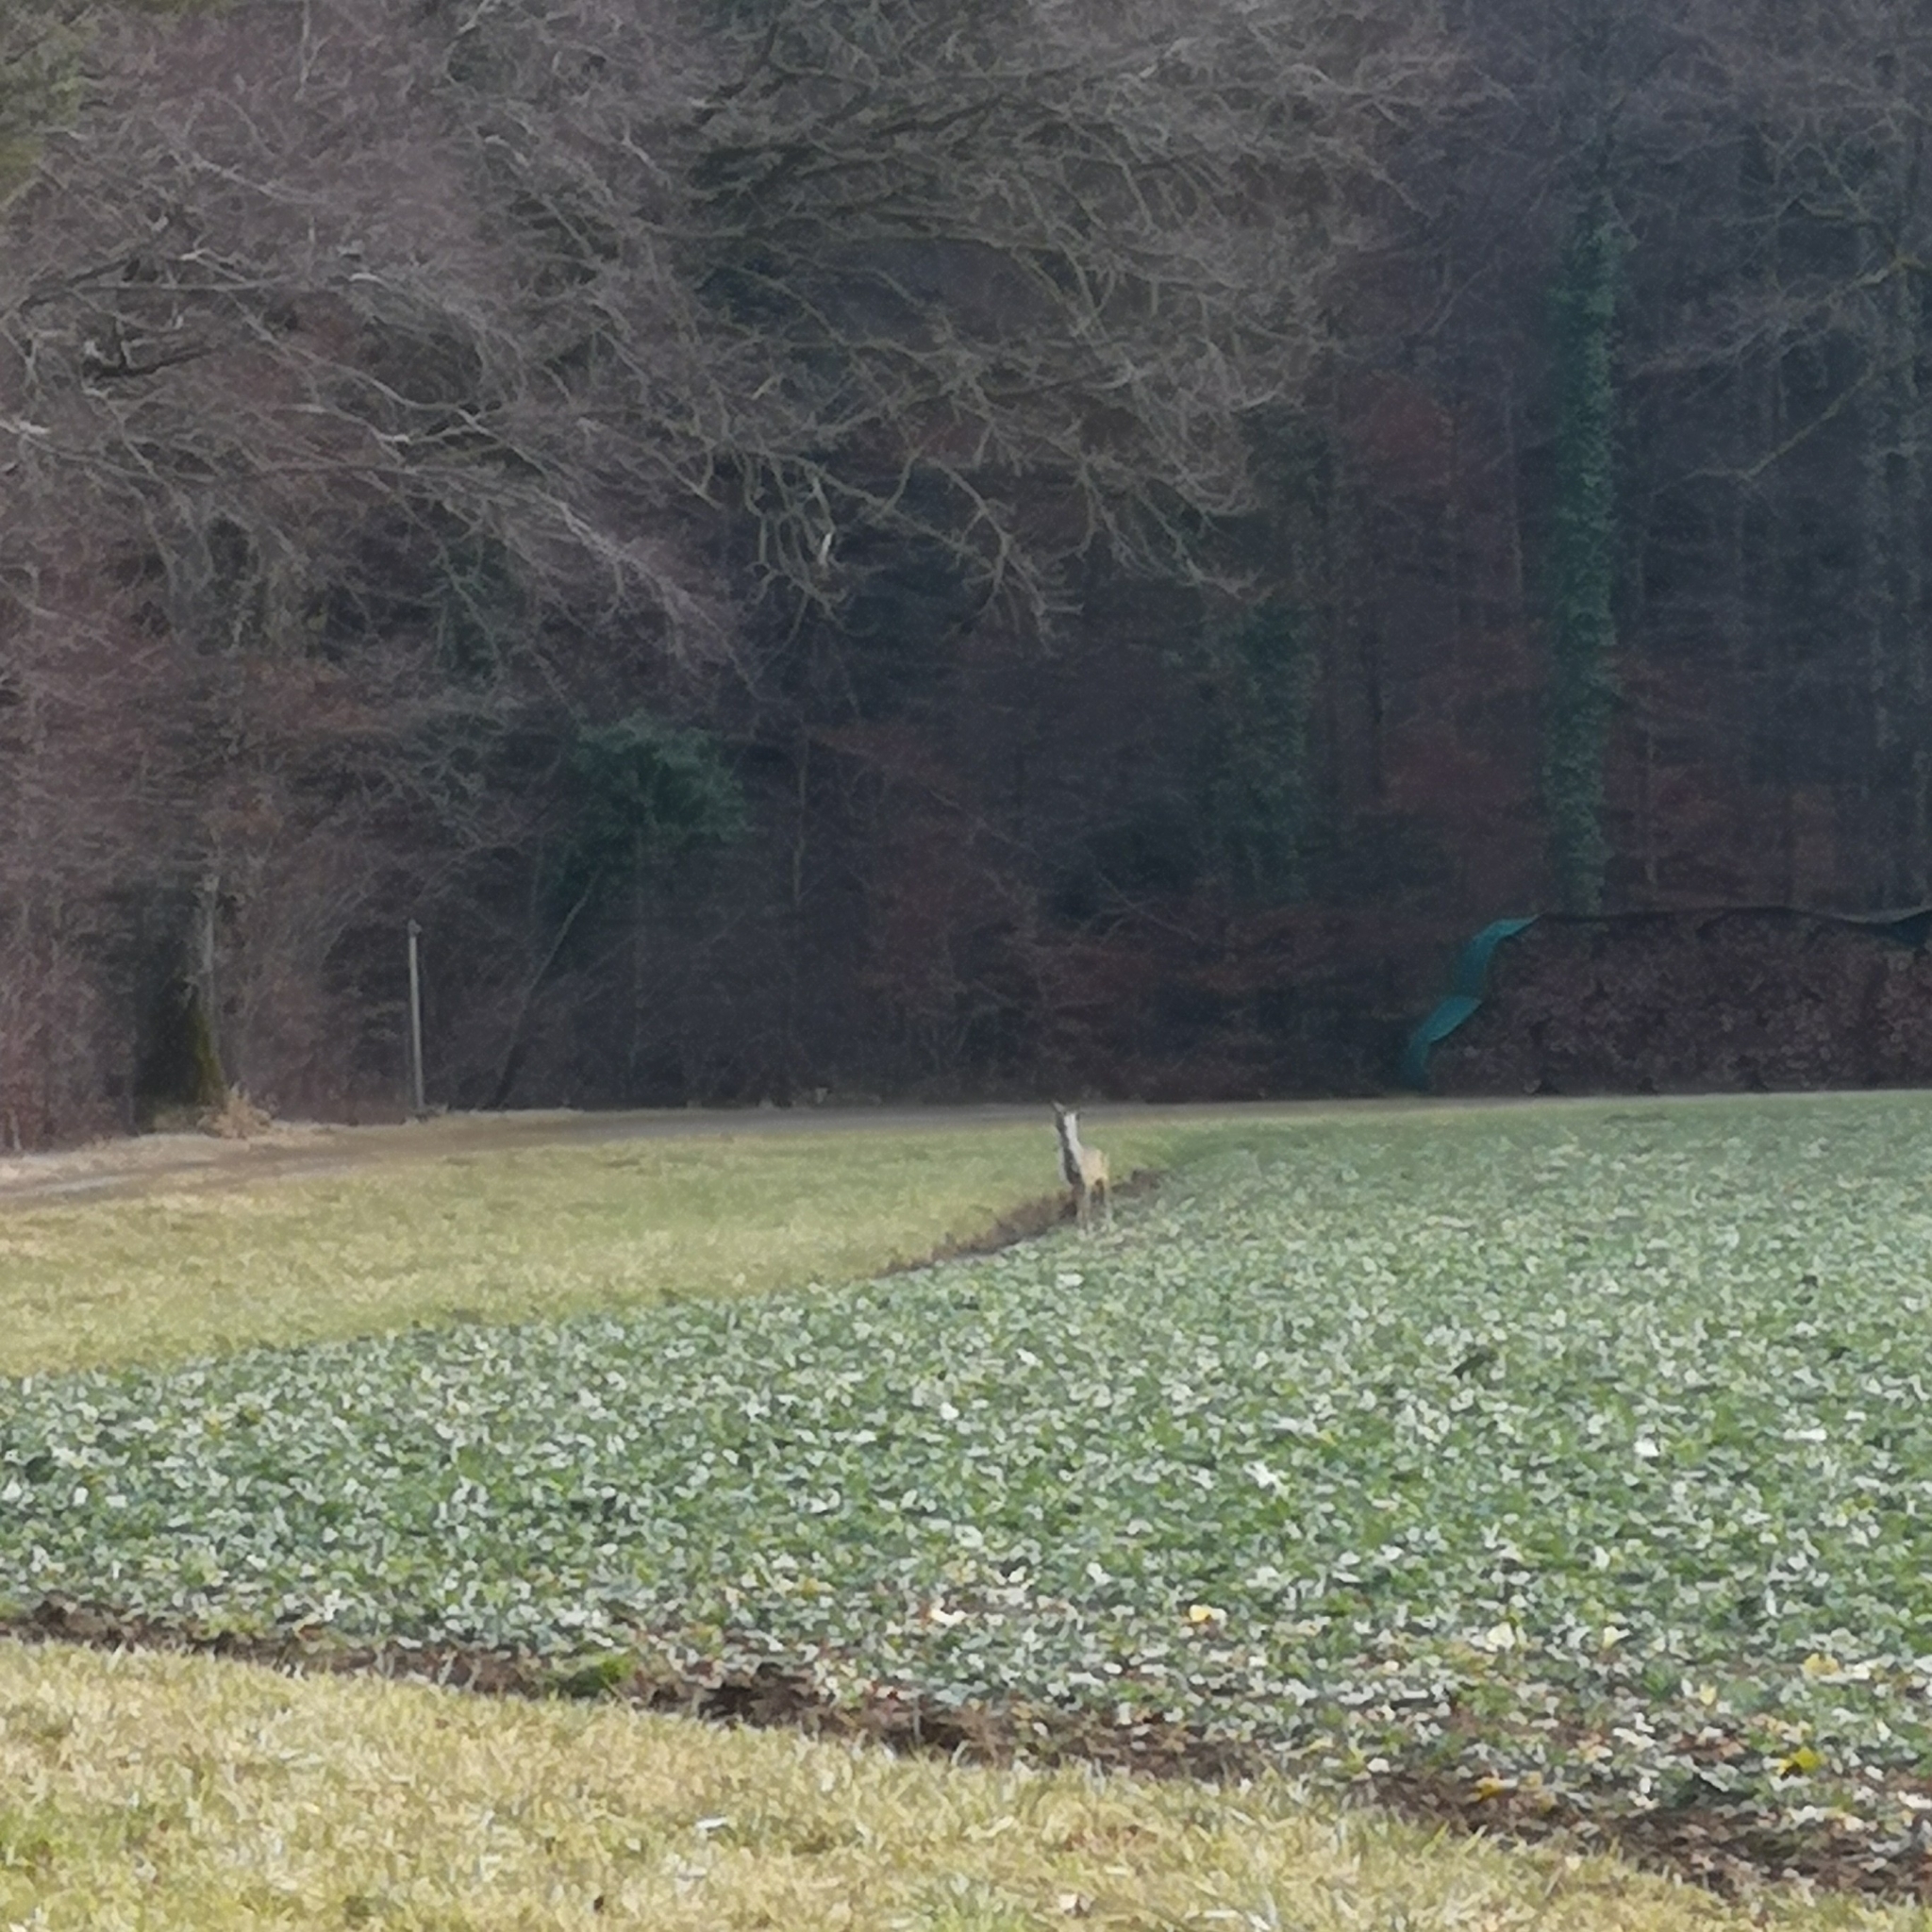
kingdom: Animalia
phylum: Chordata
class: Mammalia
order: Artiodactyla
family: Cervidae
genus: Capreolus
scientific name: Capreolus capreolus
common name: Western roe deer
